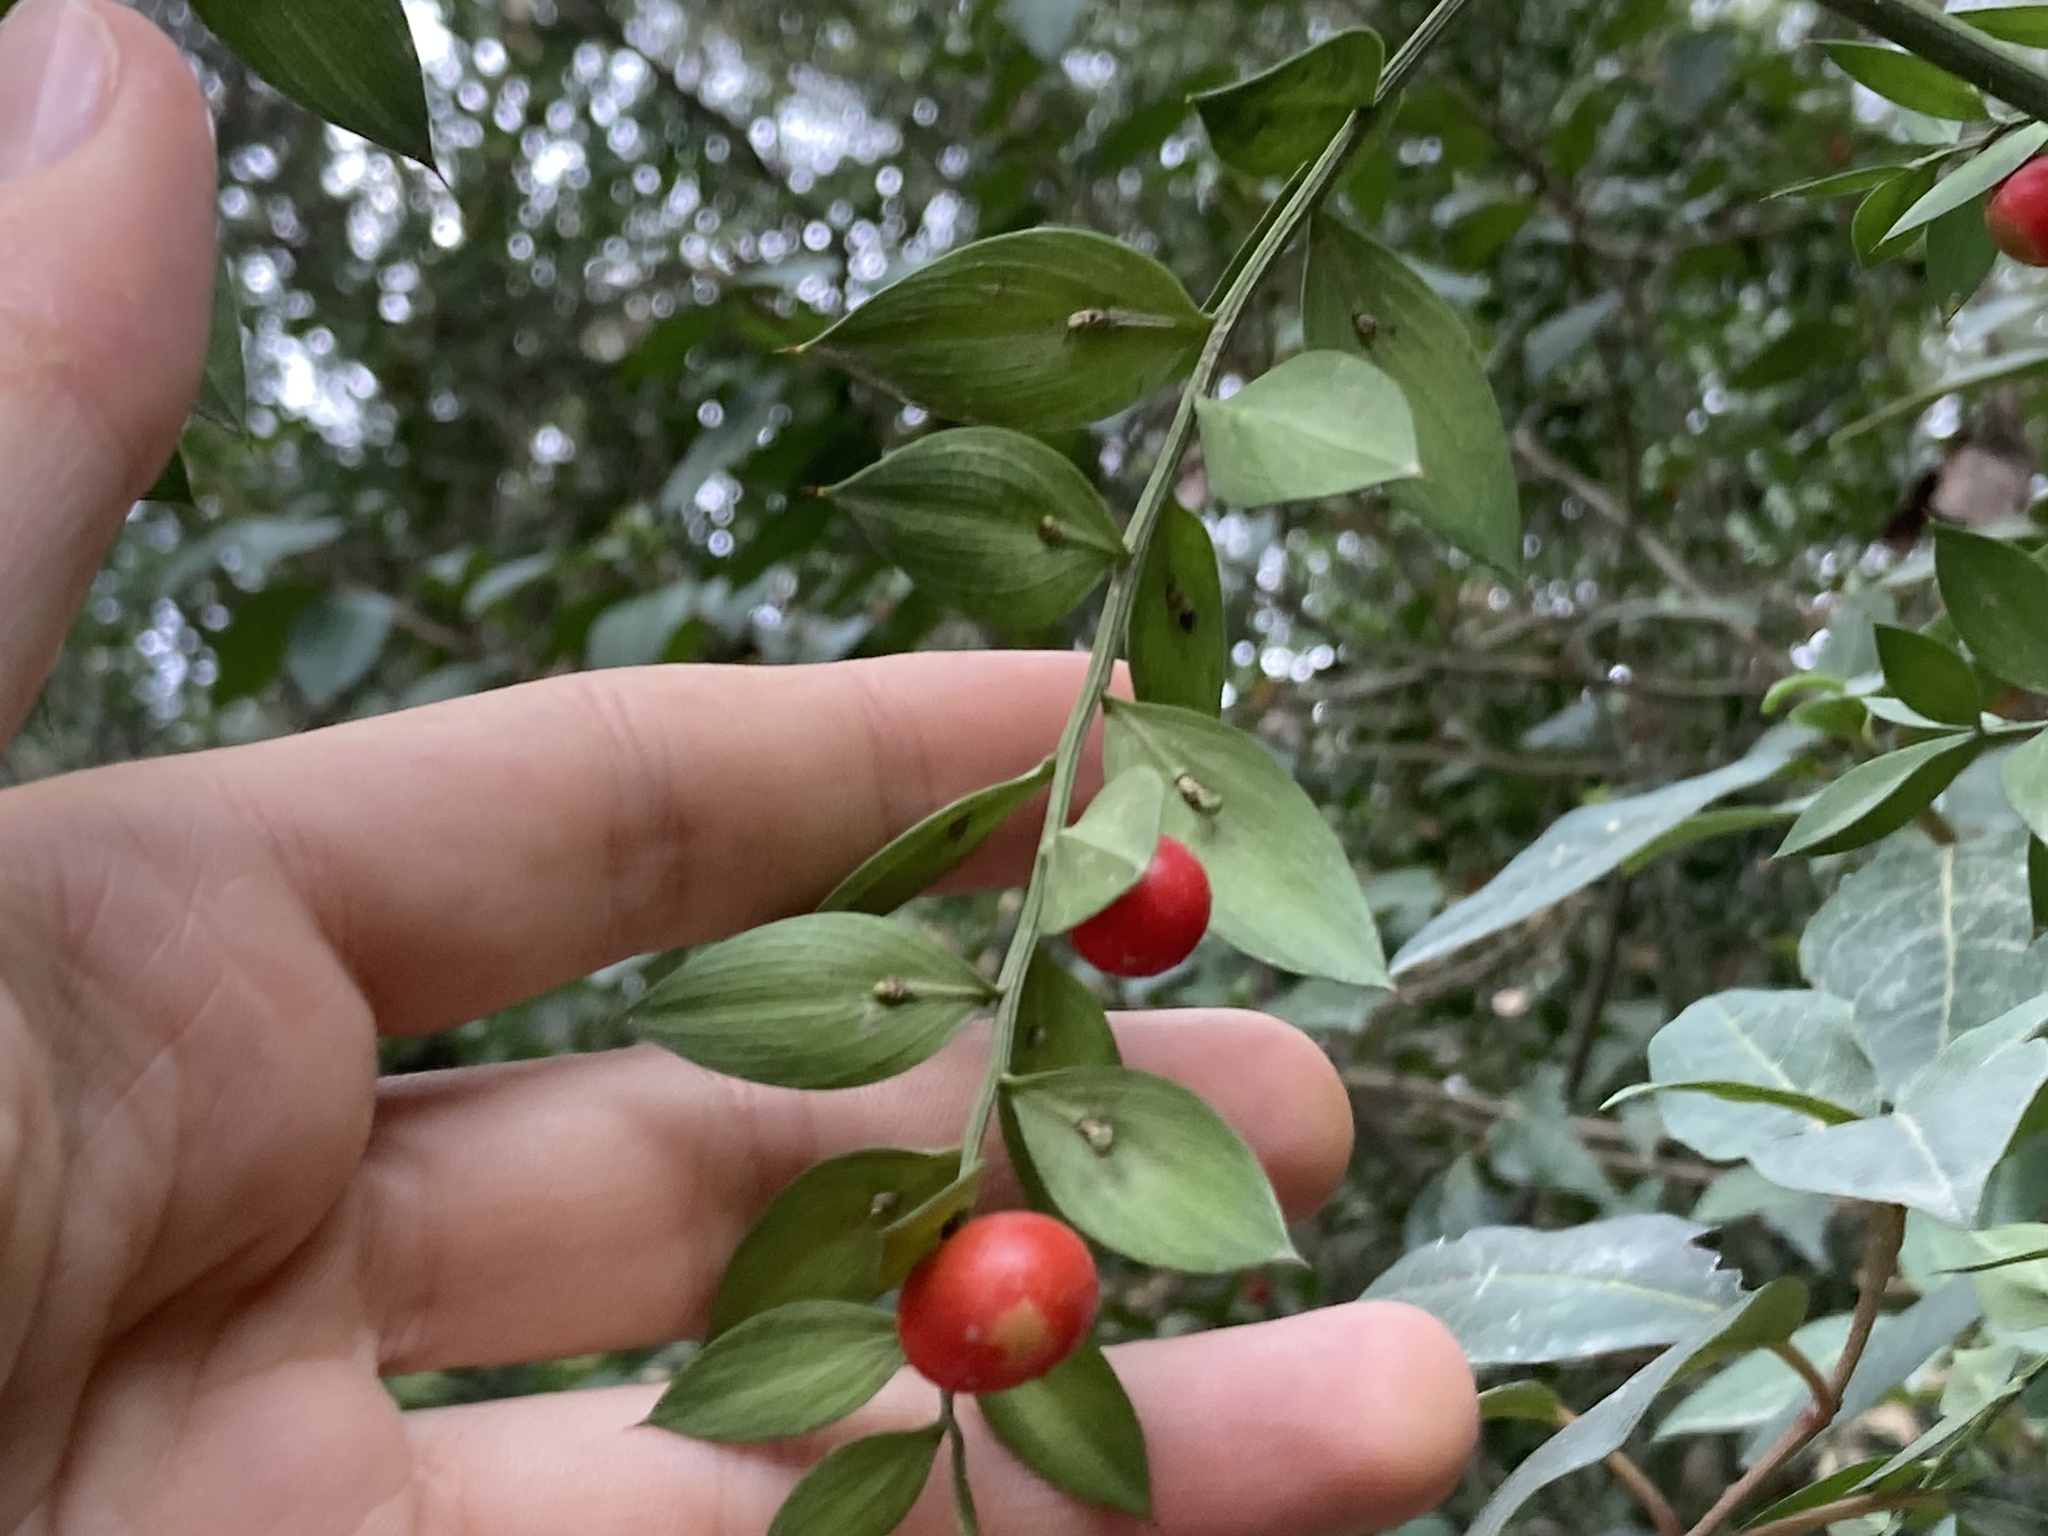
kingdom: Plantae
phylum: Tracheophyta
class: Liliopsida
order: Asparagales
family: Asparagaceae
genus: Ruscus
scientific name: Ruscus aculeatus
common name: Butcher's-broom
